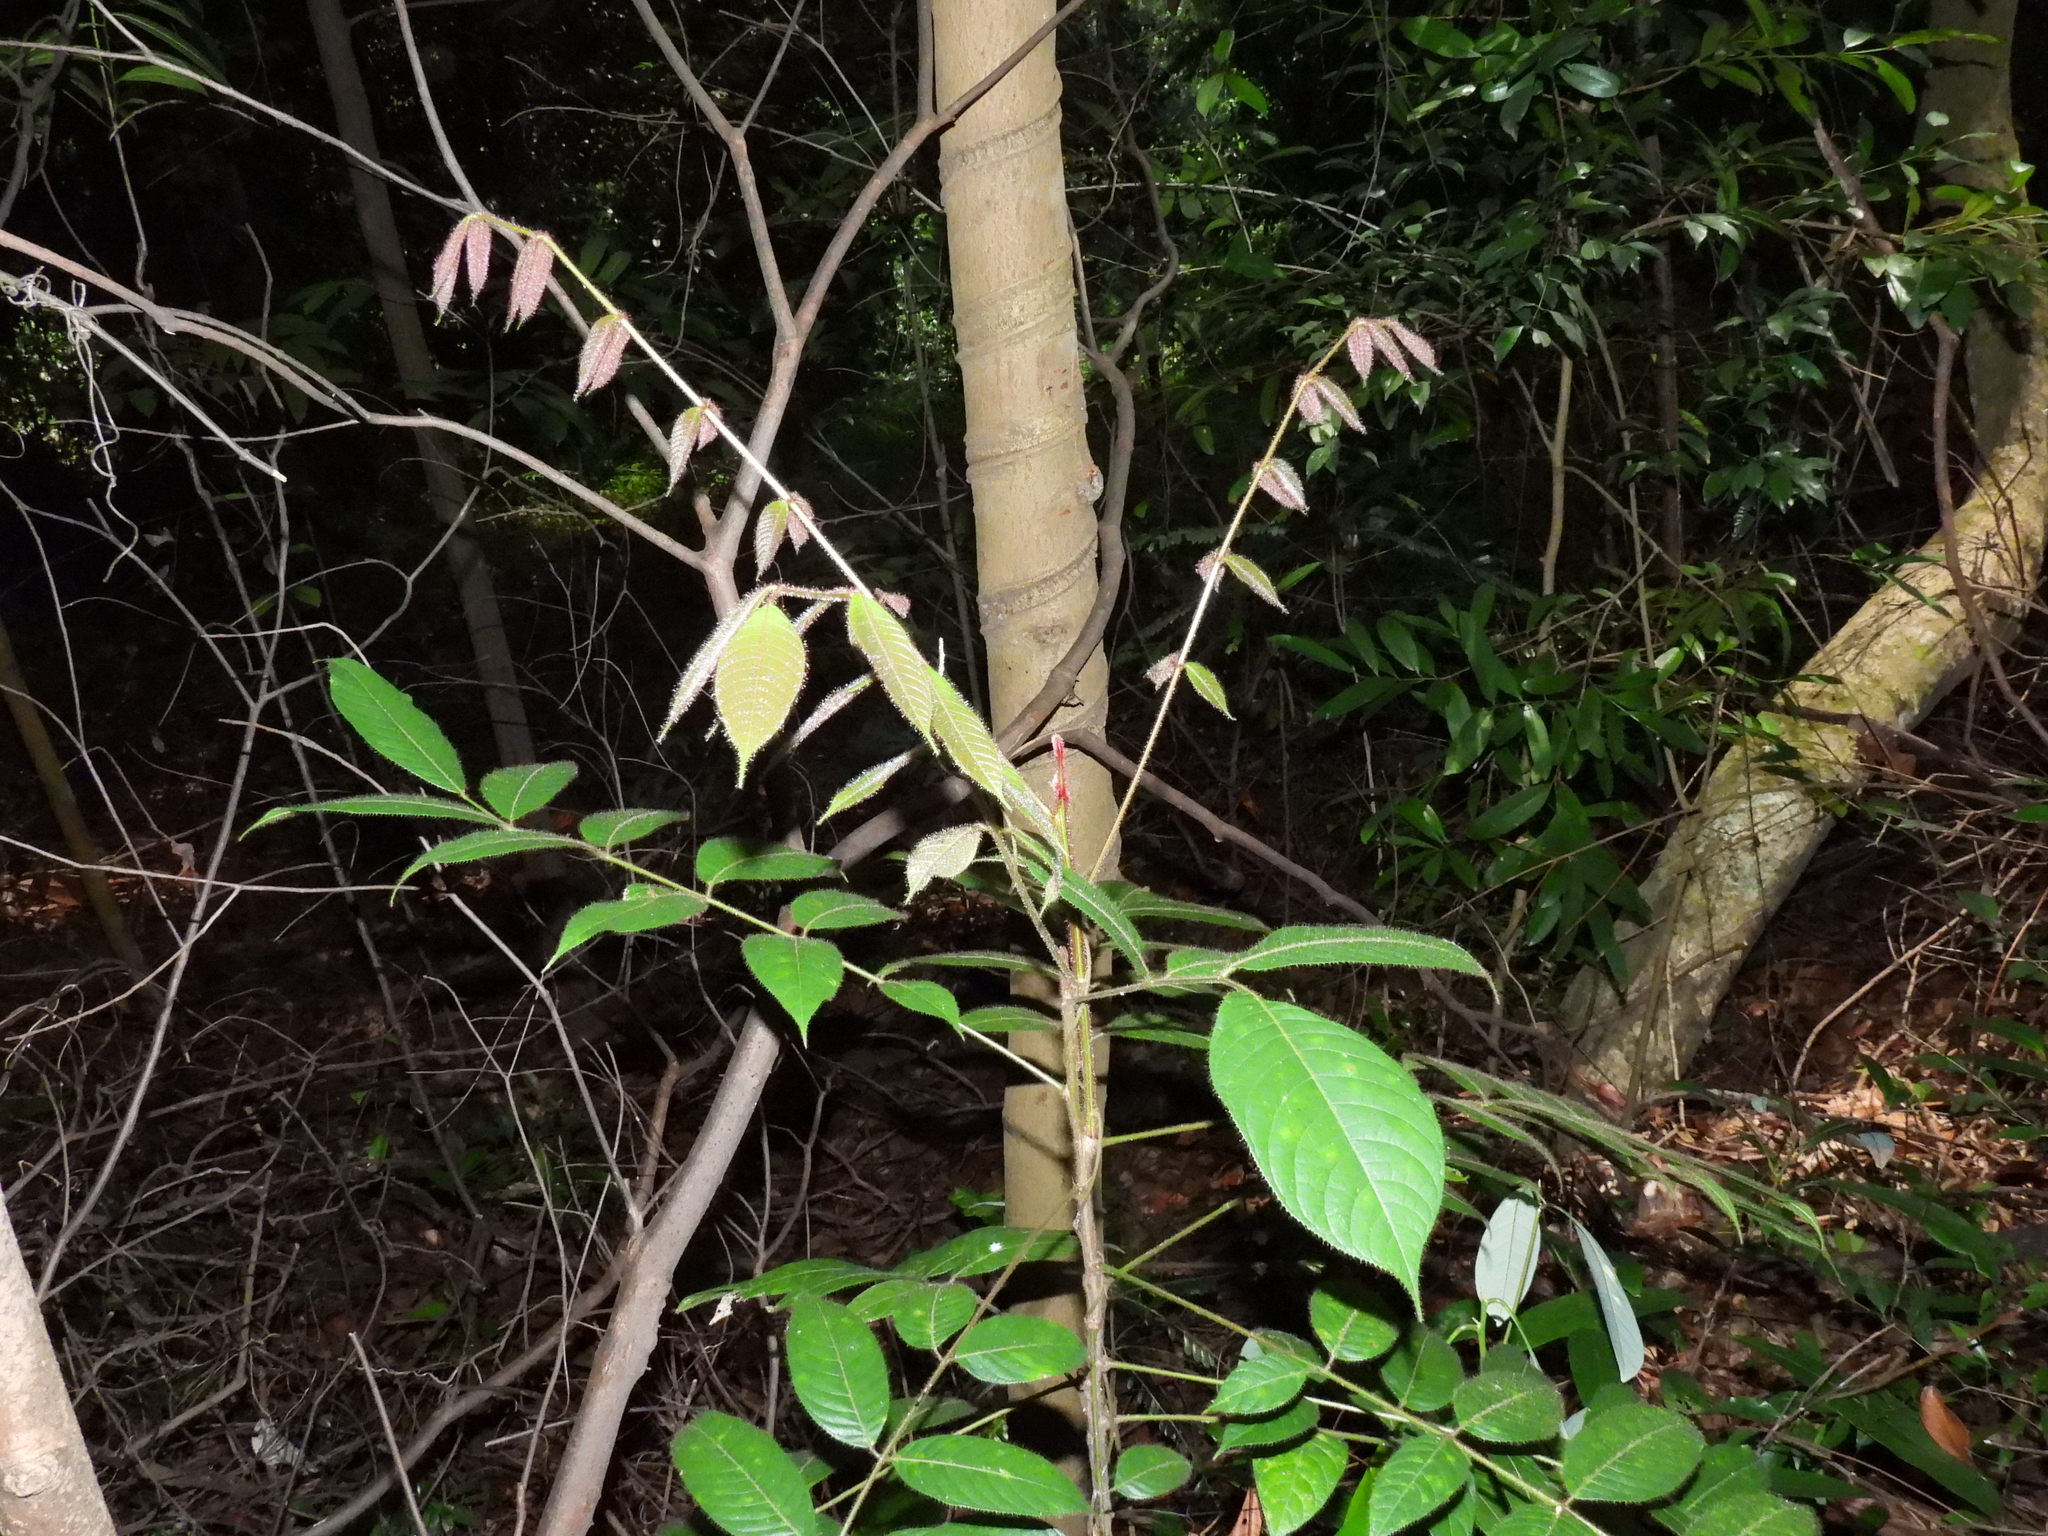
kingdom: Plantae
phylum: Tracheophyta
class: Magnoliopsida
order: Sapindales
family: Burseraceae
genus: Canarium
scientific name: Canarium pilosum
